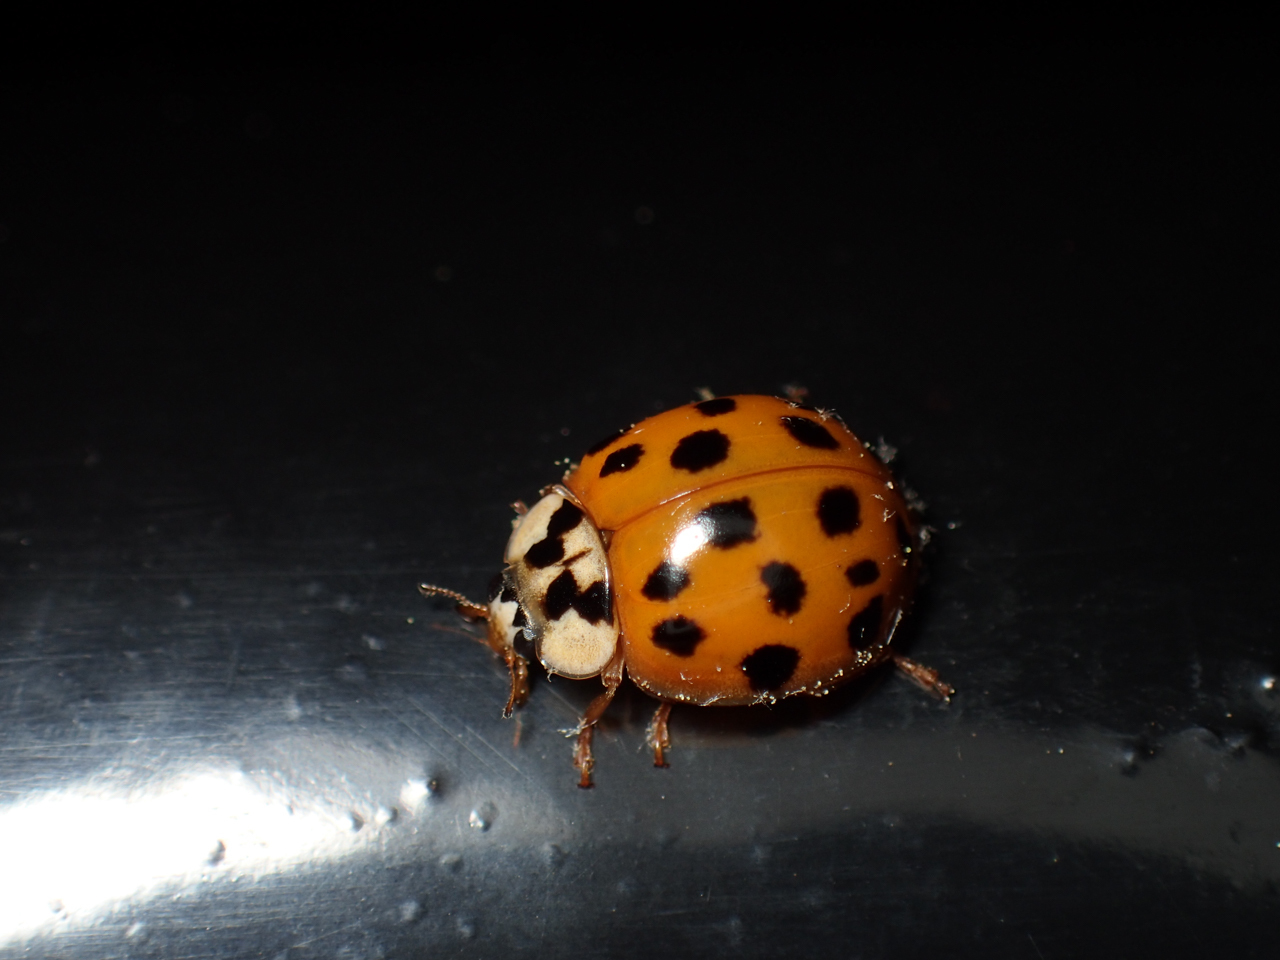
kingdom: Animalia
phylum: Arthropoda
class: Insecta
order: Coleoptera
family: Coccinellidae
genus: Harmonia
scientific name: Harmonia axyridis
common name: Harlequin ladybird
